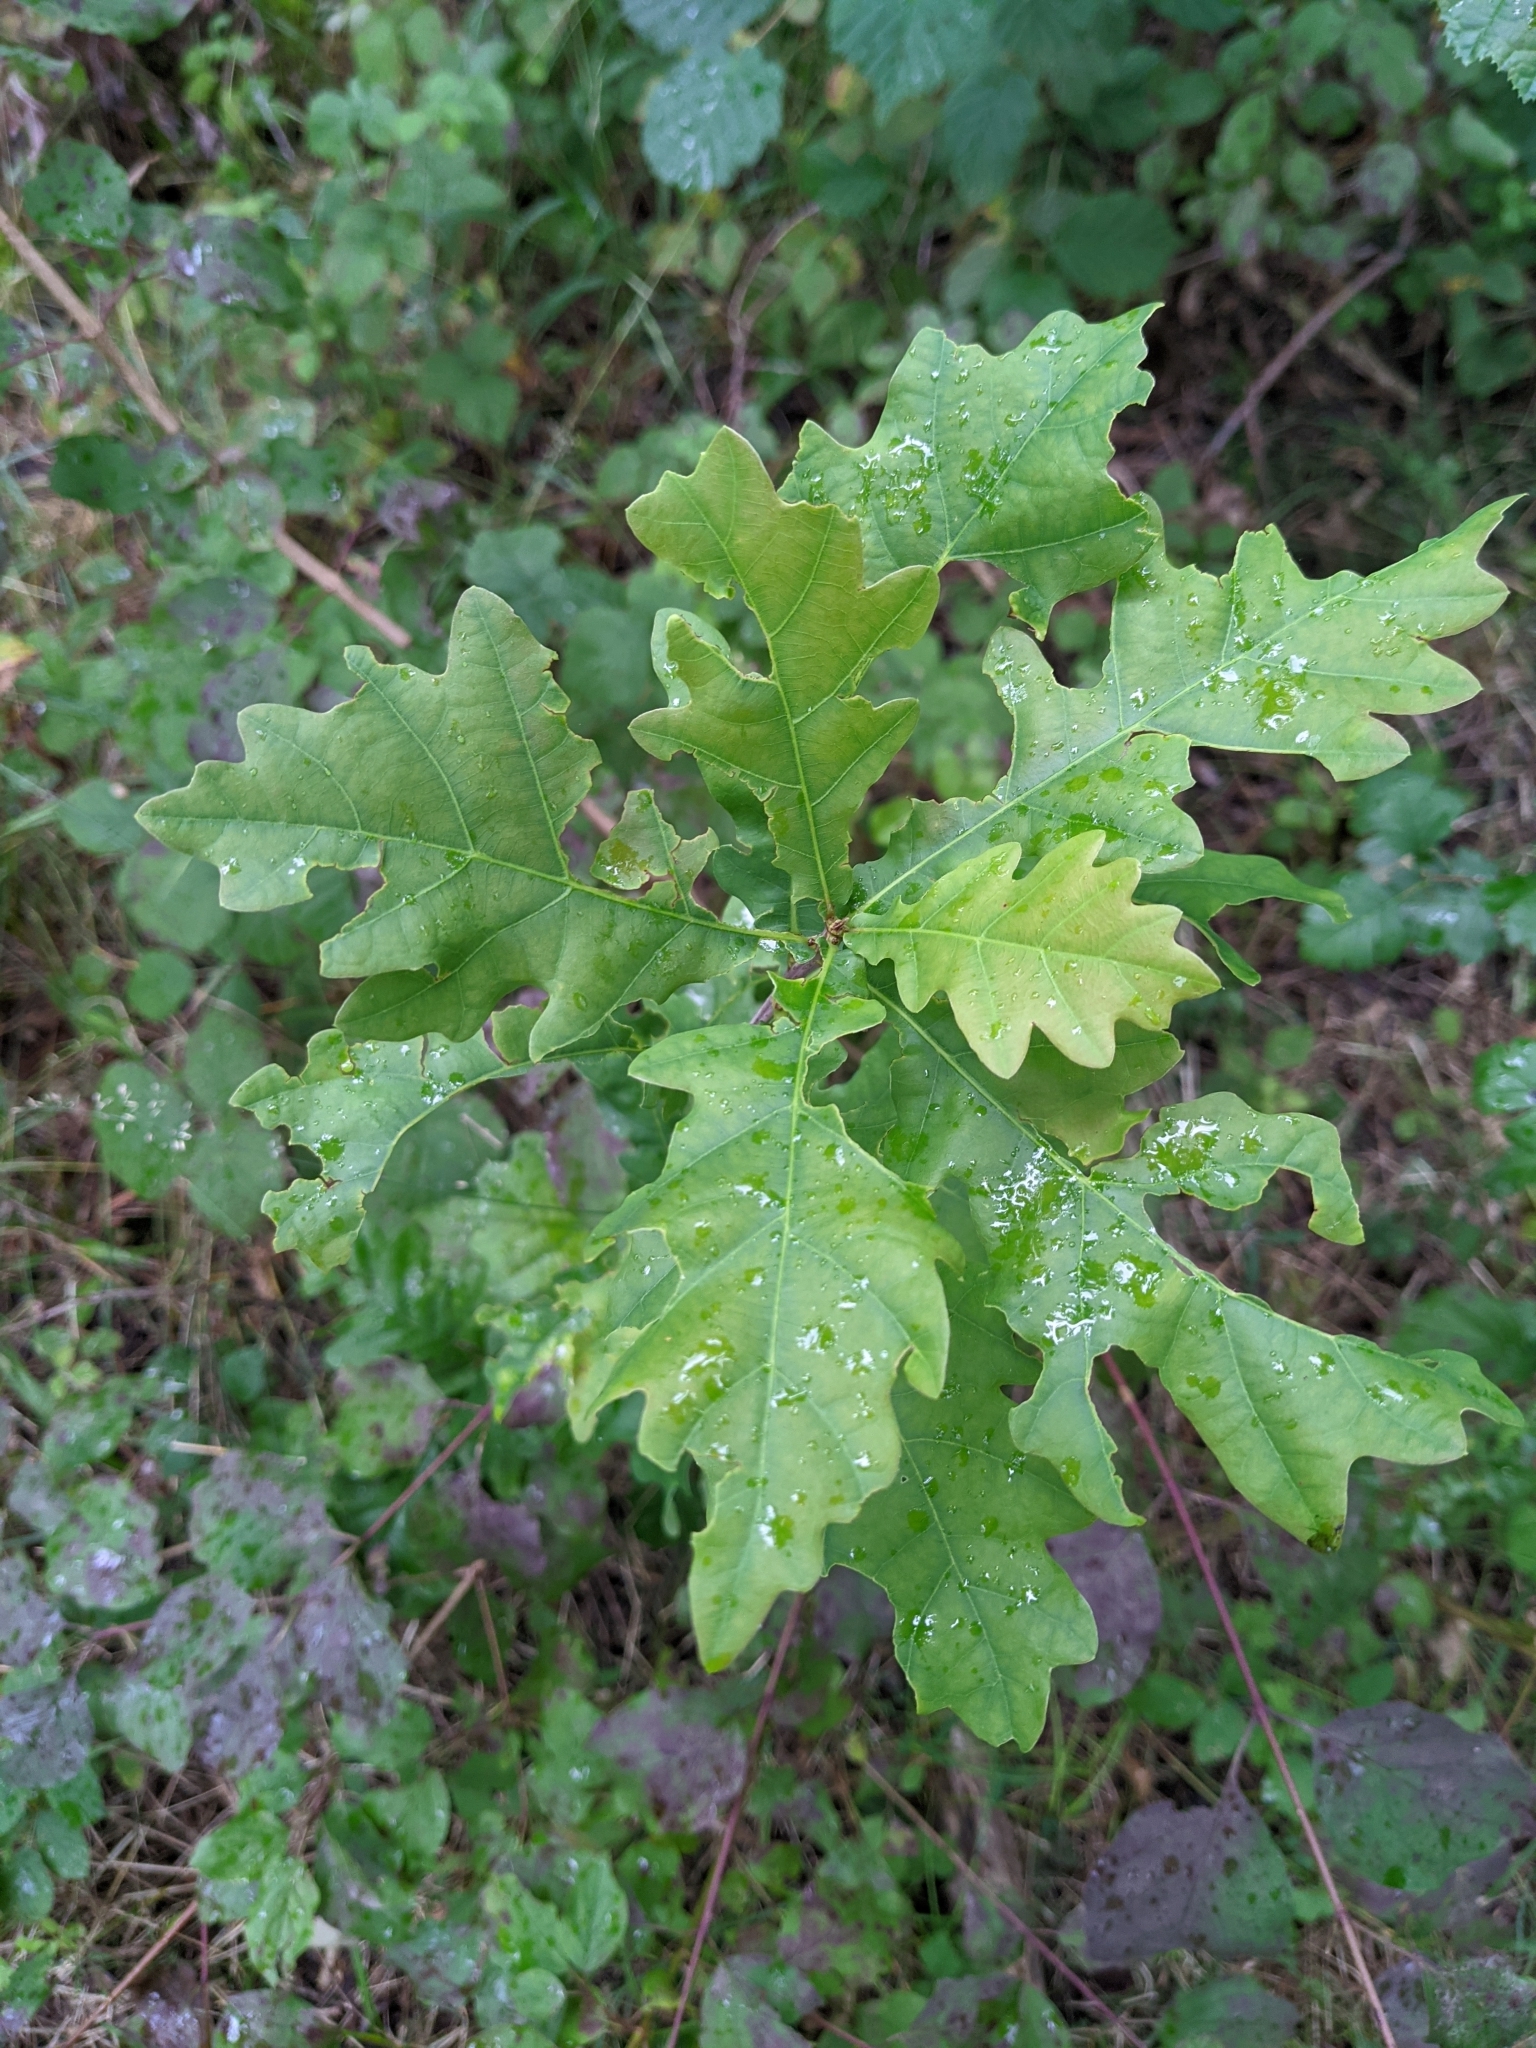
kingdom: Plantae
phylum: Tracheophyta
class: Magnoliopsida
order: Fagales
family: Fagaceae
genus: Quercus
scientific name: Quercus robur
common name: Pedunculate oak
